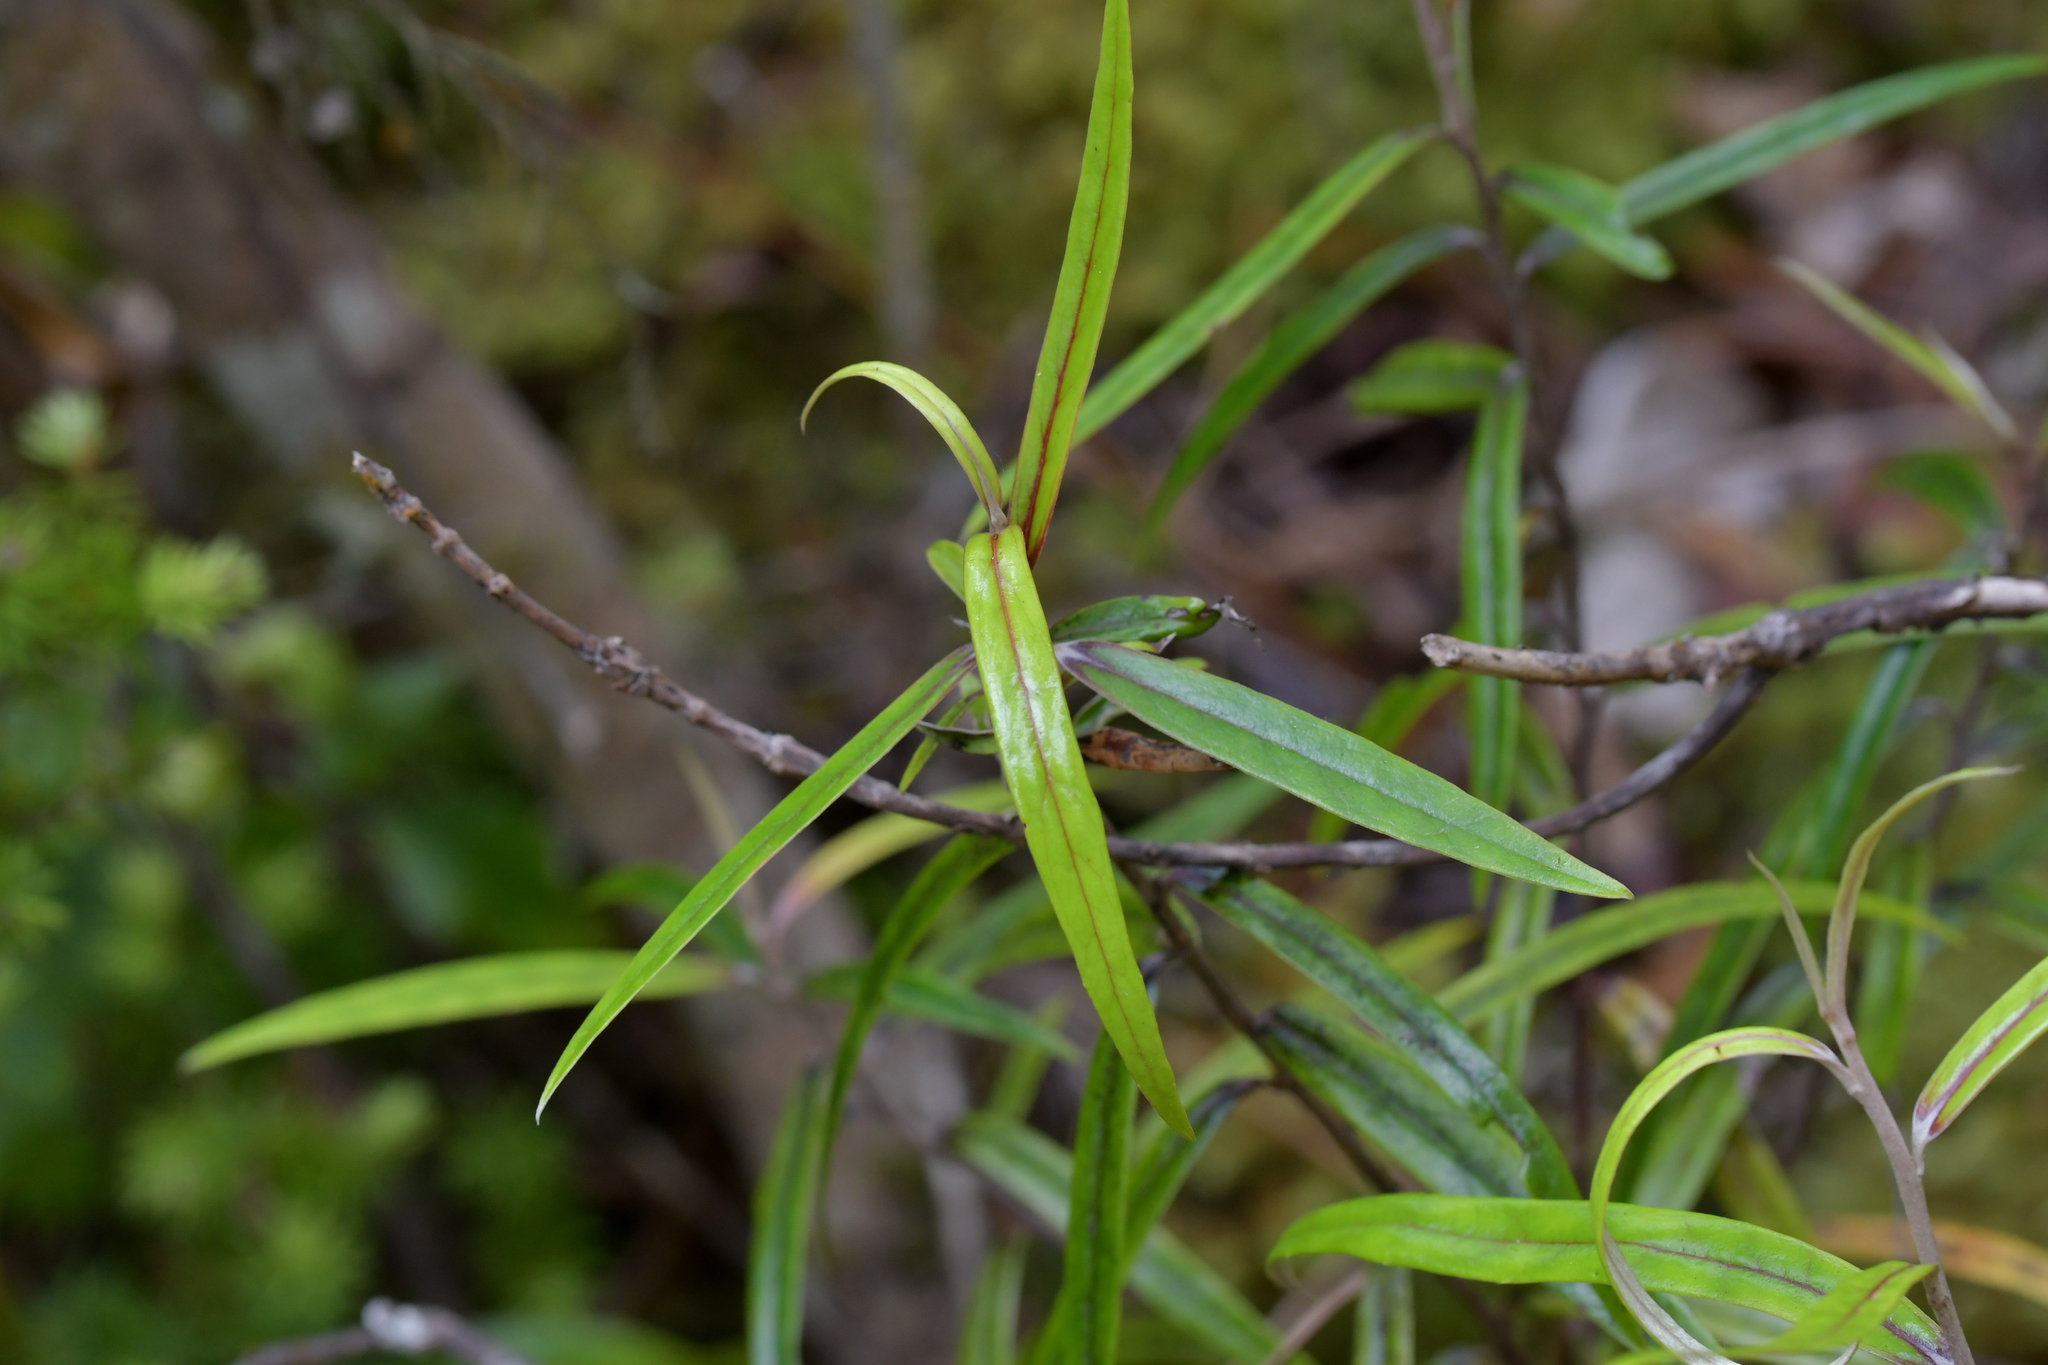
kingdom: Plantae
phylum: Tracheophyta
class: Magnoliopsida
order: Asterales
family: Argophyllaceae
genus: Corokia
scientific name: Corokia buddleioides
